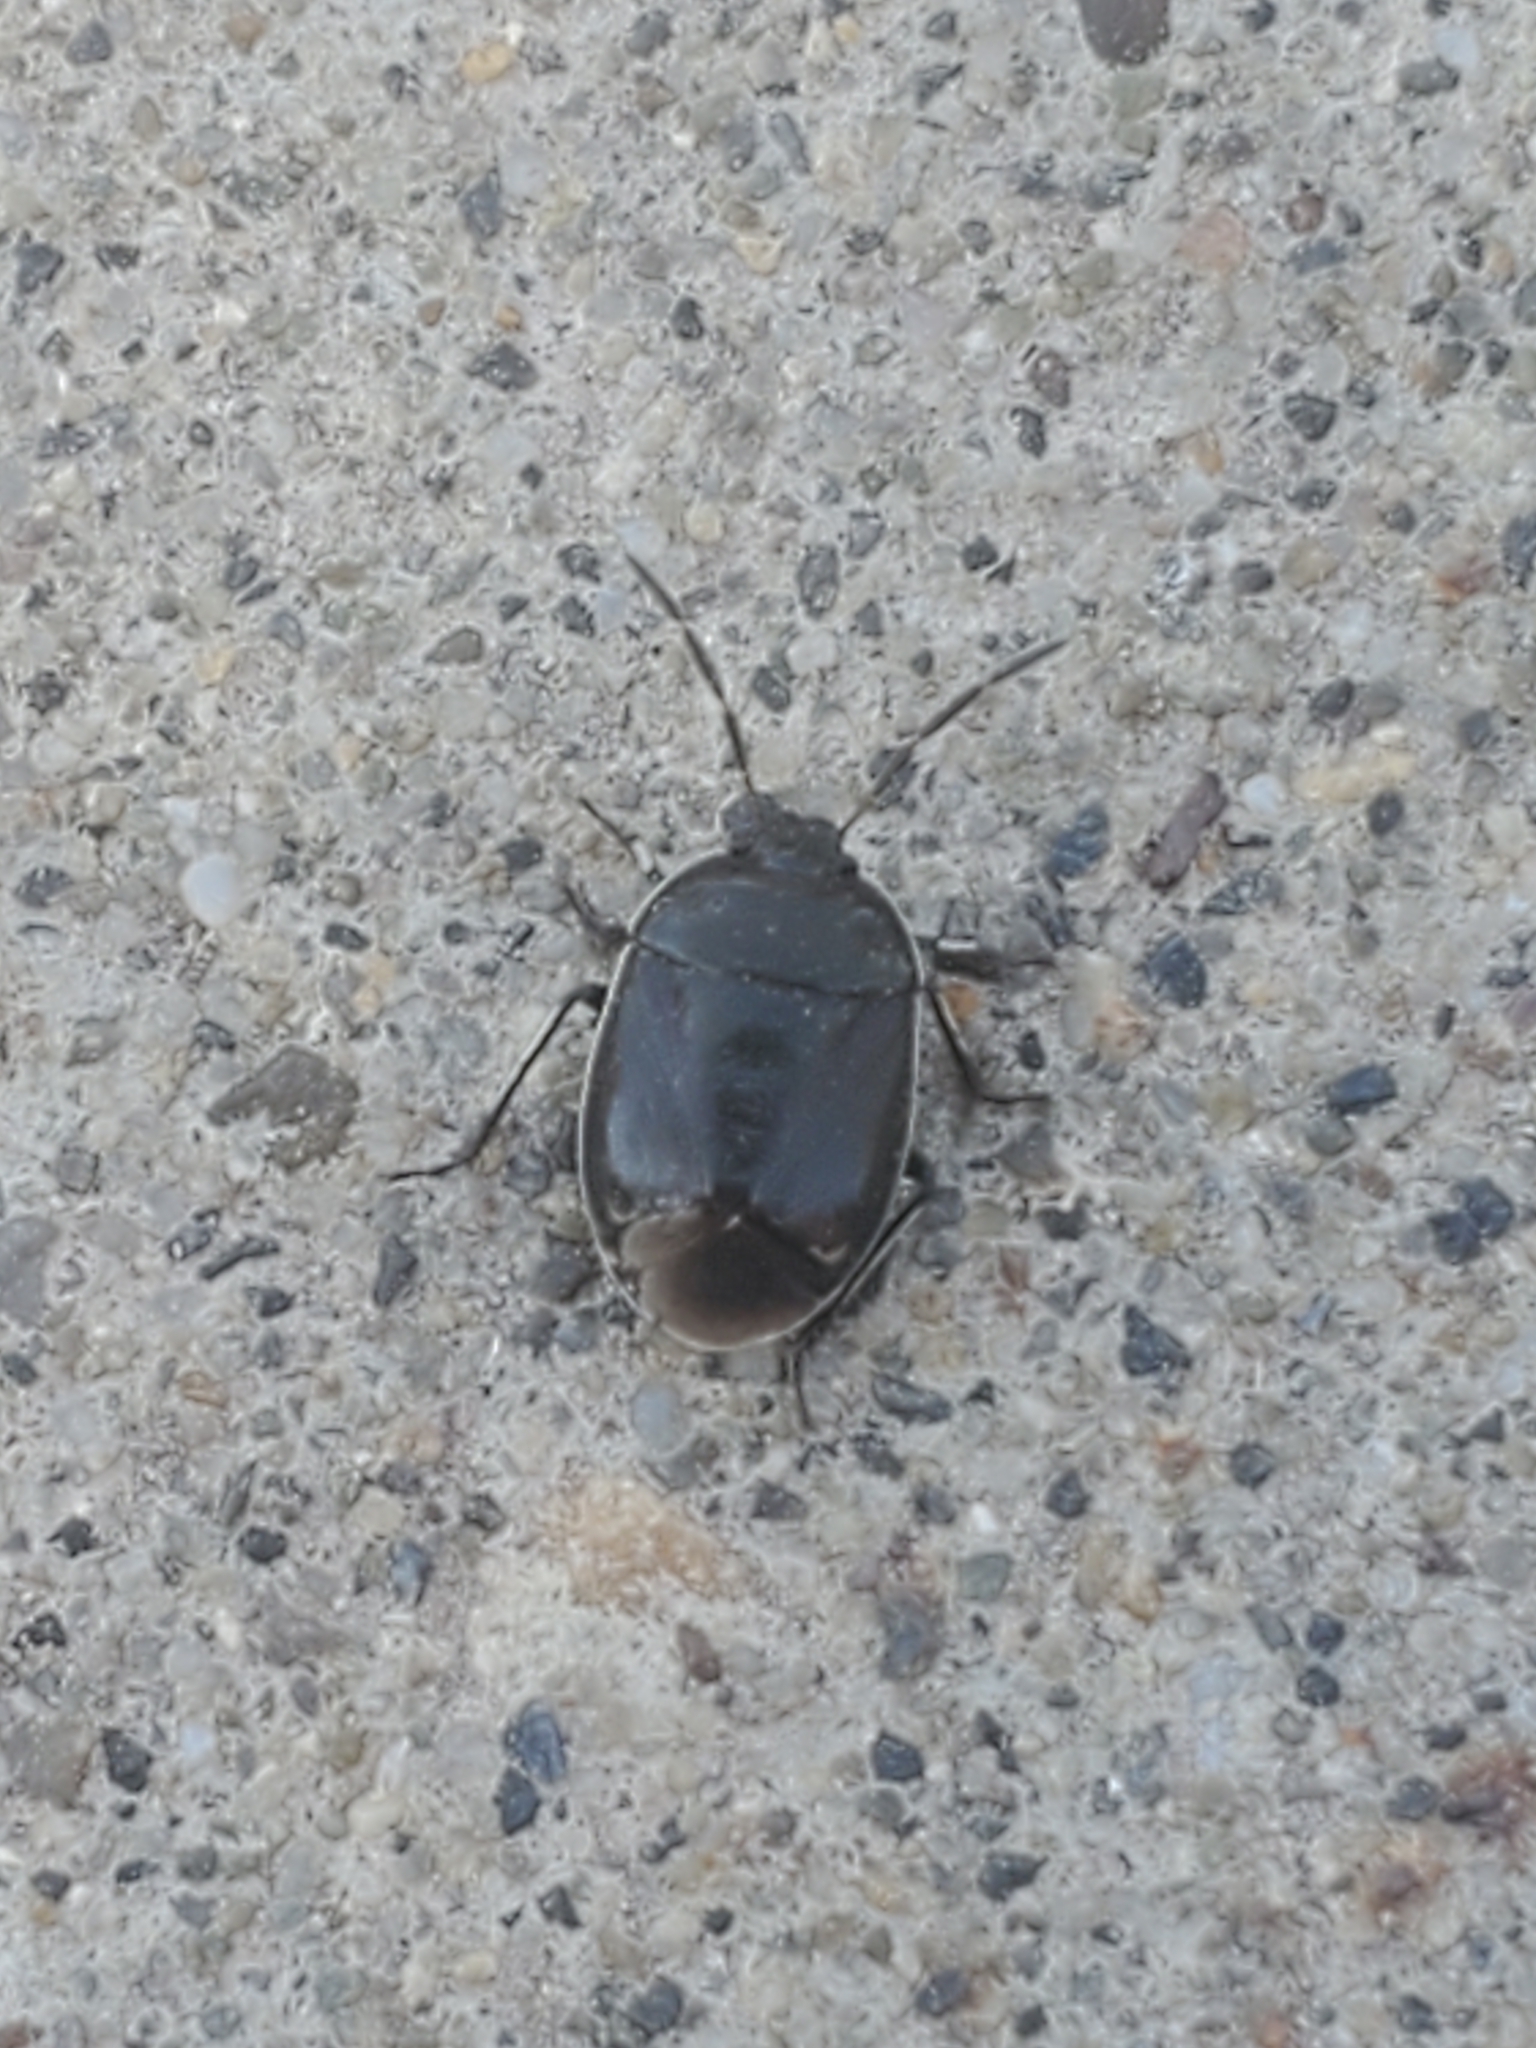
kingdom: Animalia
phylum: Arthropoda
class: Insecta
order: Hemiptera
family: Cydnidae
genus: Sehirus
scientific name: Sehirus cinctus
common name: White-margined burrower bug
